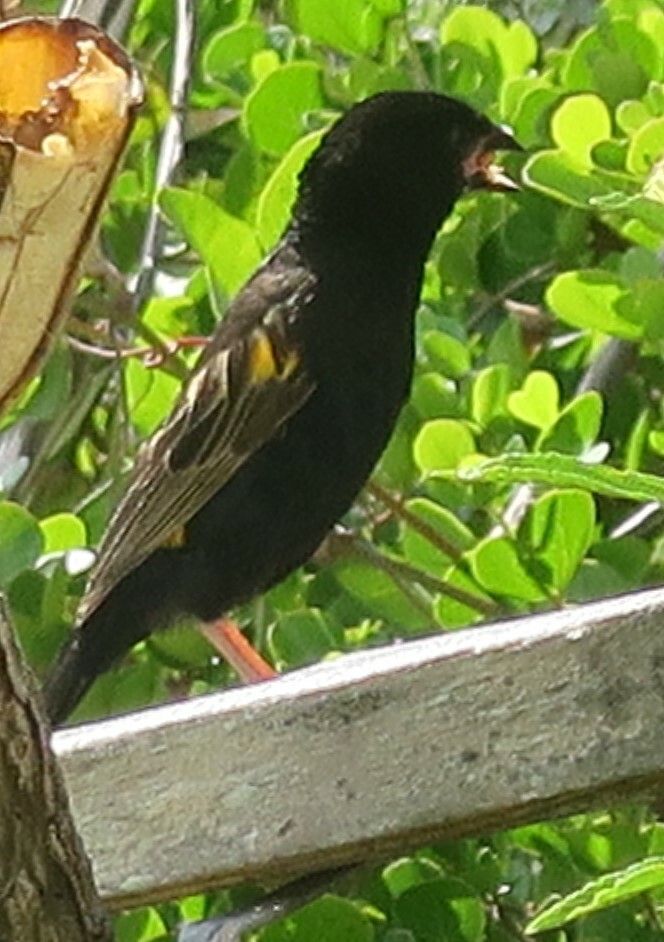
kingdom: Animalia
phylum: Chordata
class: Aves
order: Passeriformes
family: Ploceidae
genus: Euplectes
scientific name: Euplectes capensis
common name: Yellow bishop
